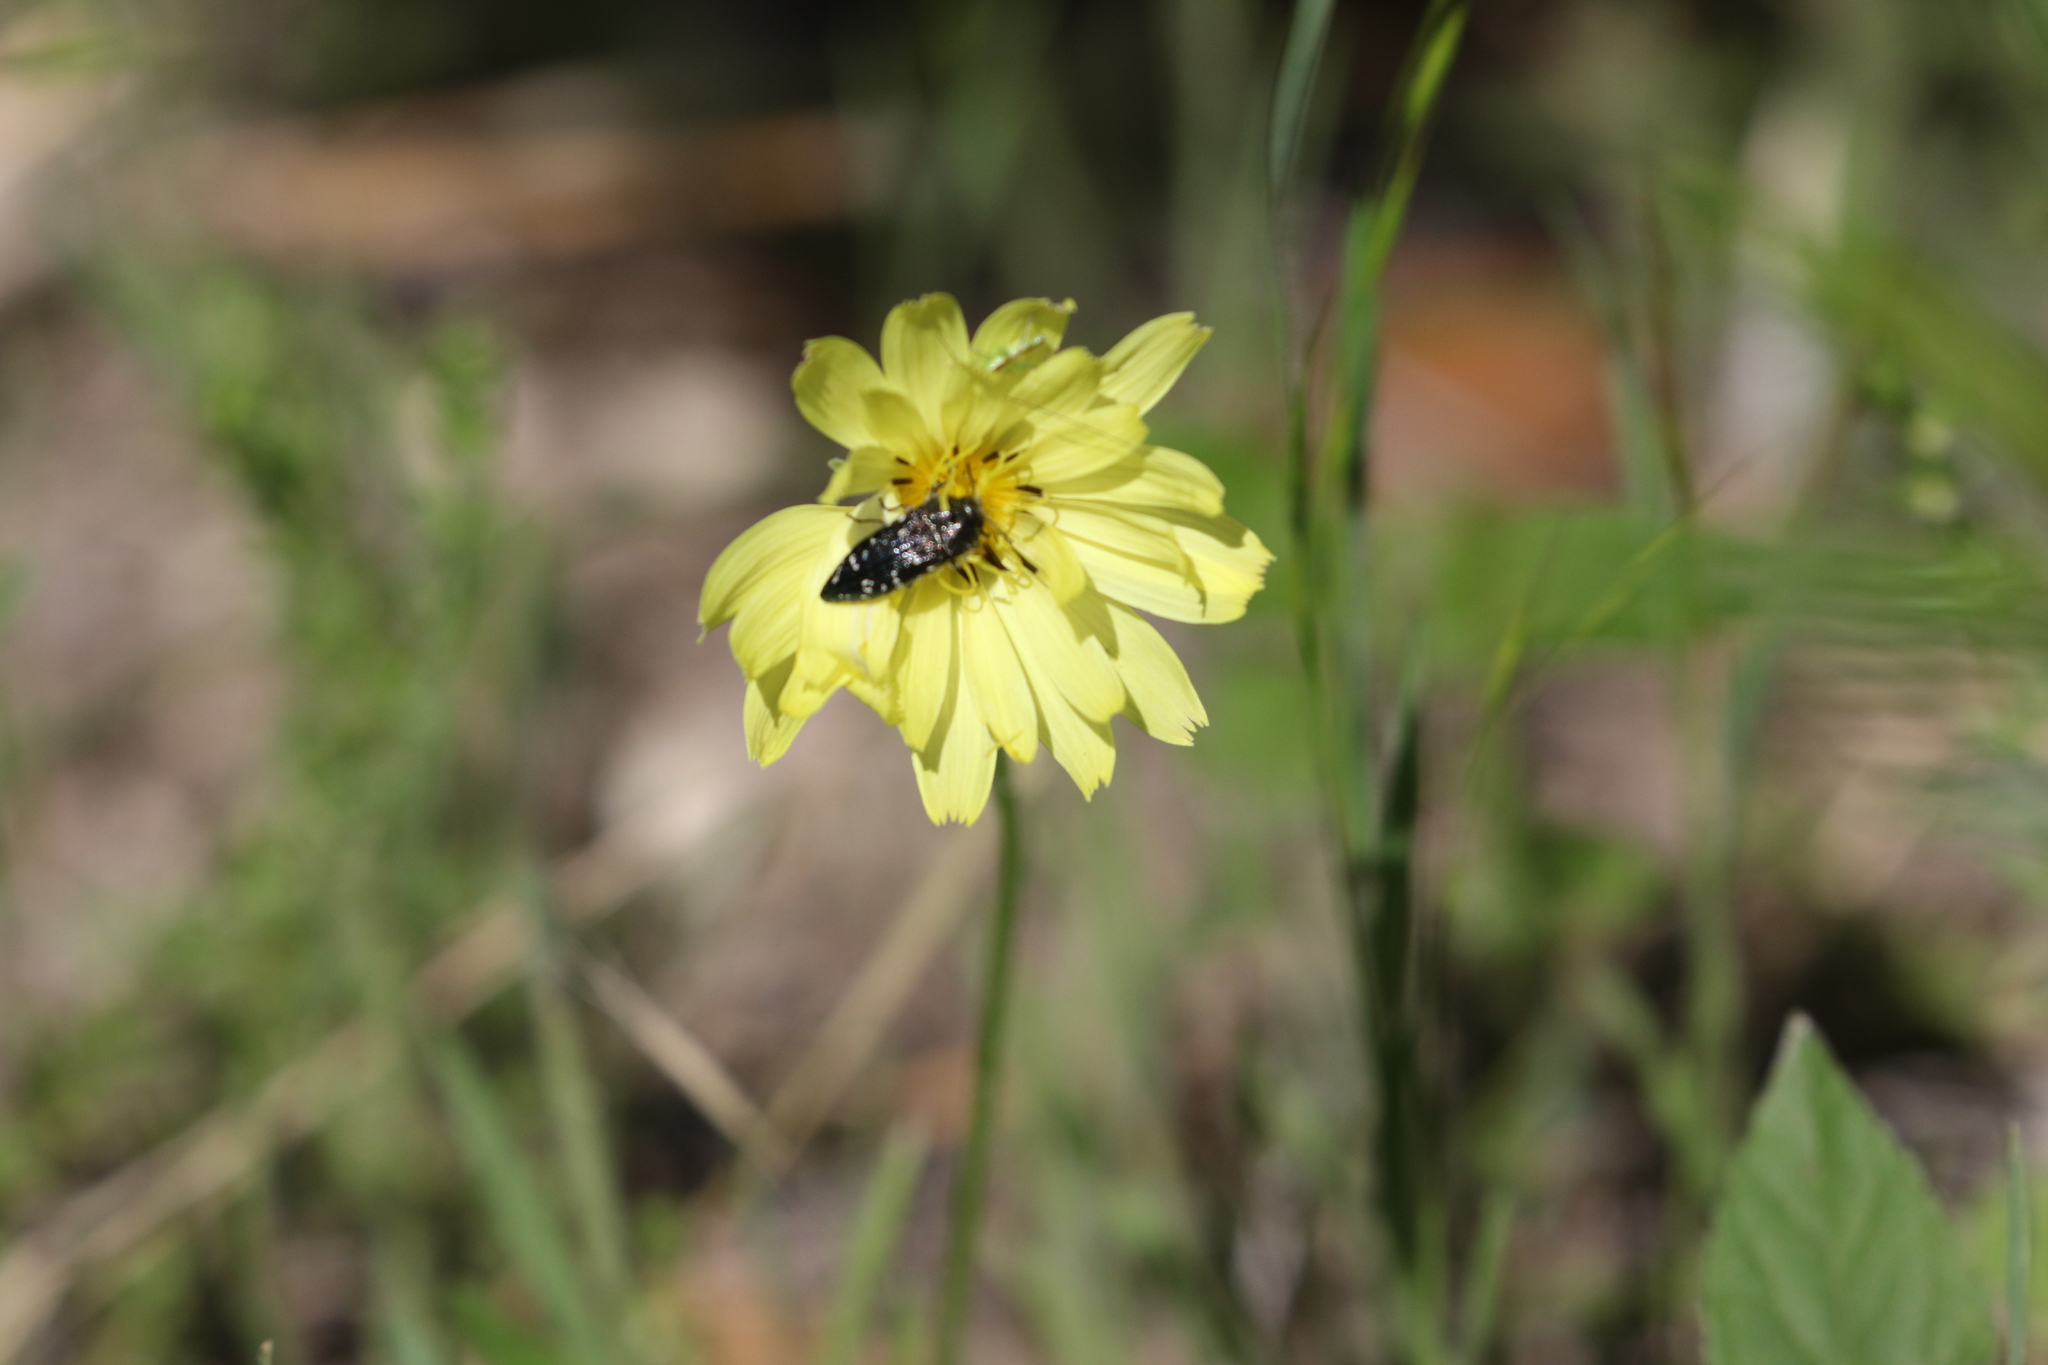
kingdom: Animalia
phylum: Arthropoda
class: Insecta
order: Coleoptera
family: Buprestidae
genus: Acmaeodera
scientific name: Acmaeodera ornatoides
